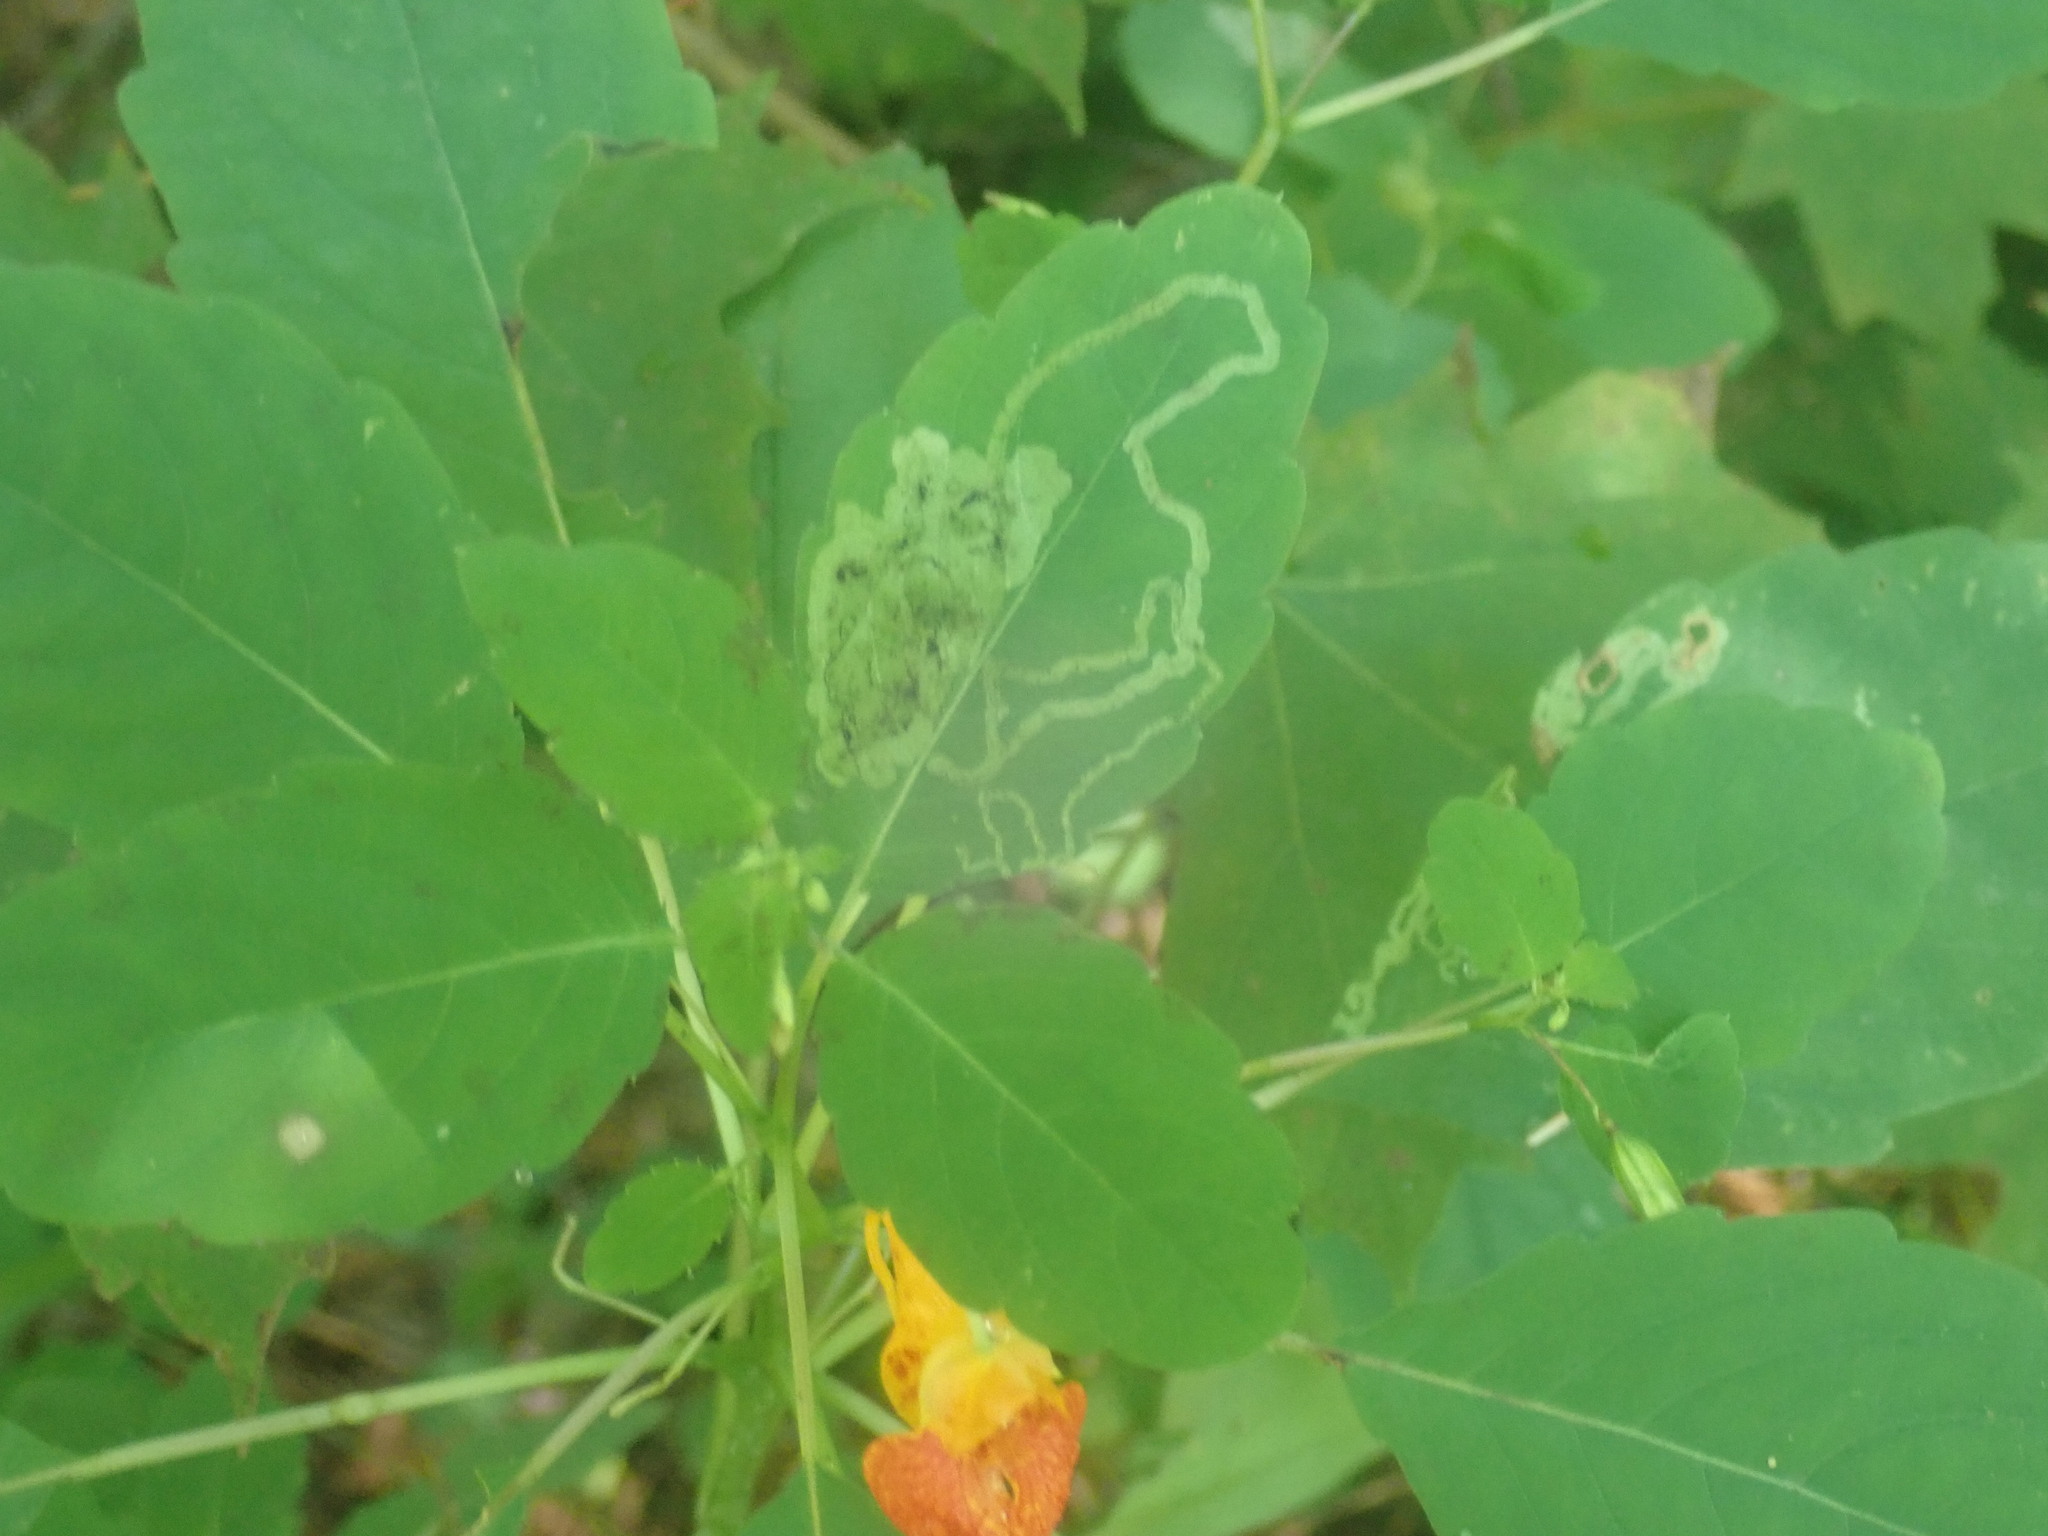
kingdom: Animalia
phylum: Arthropoda
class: Insecta
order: Diptera
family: Agromyzidae
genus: Phytoliriomyza
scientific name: Phytoliriomyza melampyga
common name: Jewelweed leaf-miner fly
